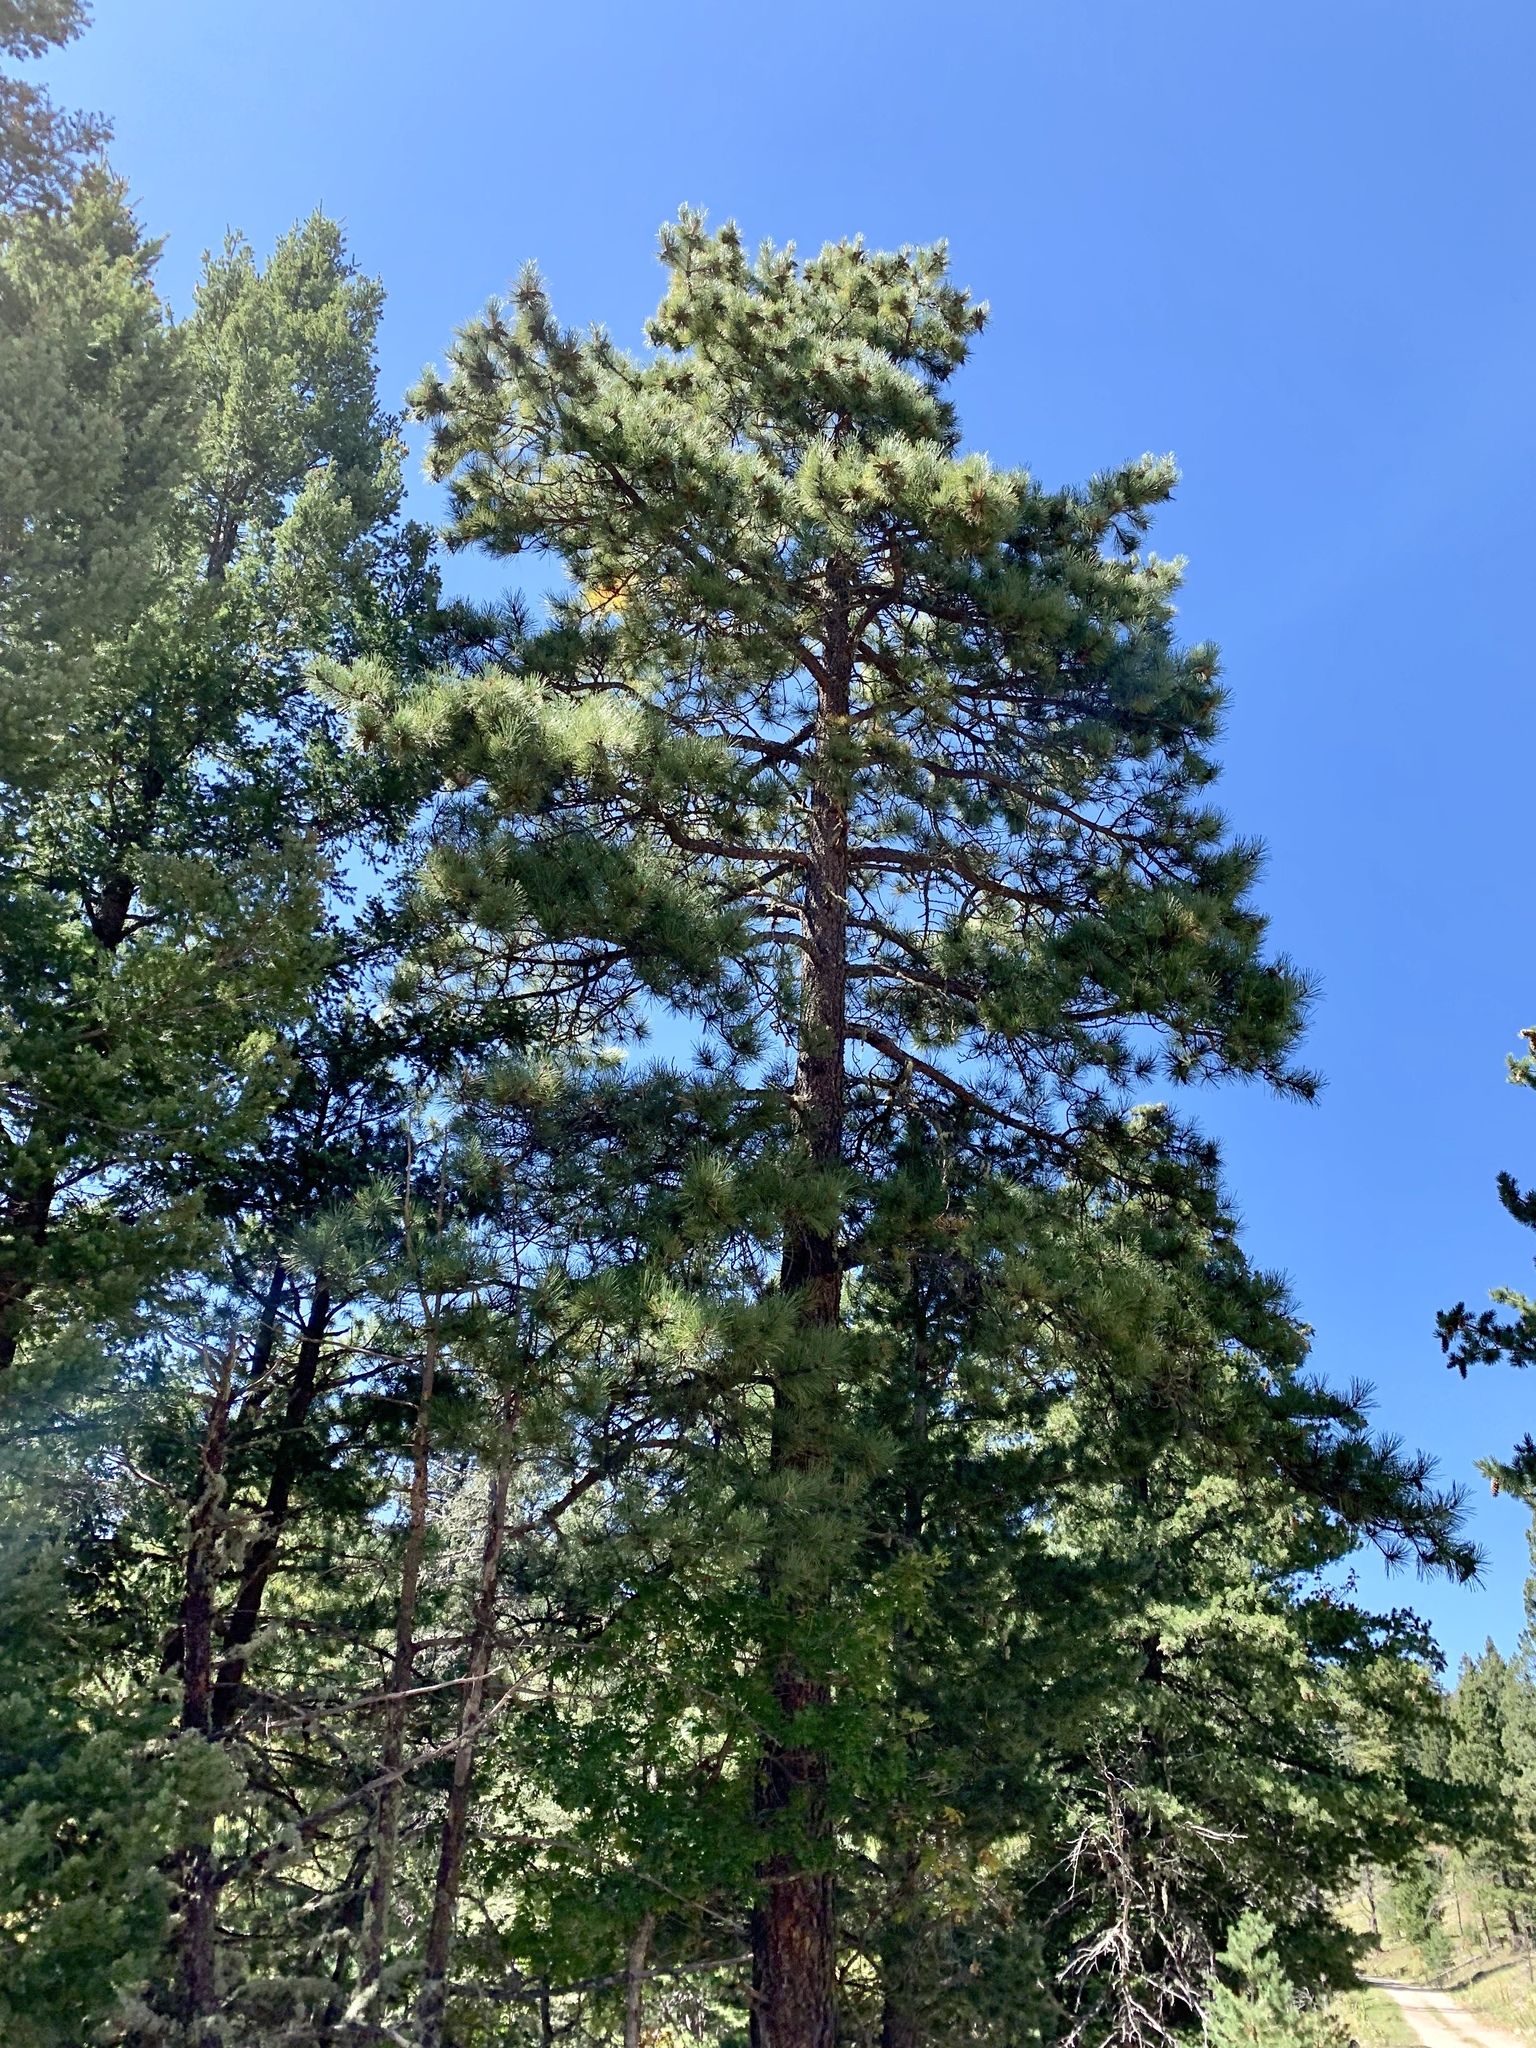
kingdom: Plantae
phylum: Tracheophyta
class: Pinopsida
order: Pinales
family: Pinaceae
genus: Pinus
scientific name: Pinus ponderosa
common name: Western yellow-pine
